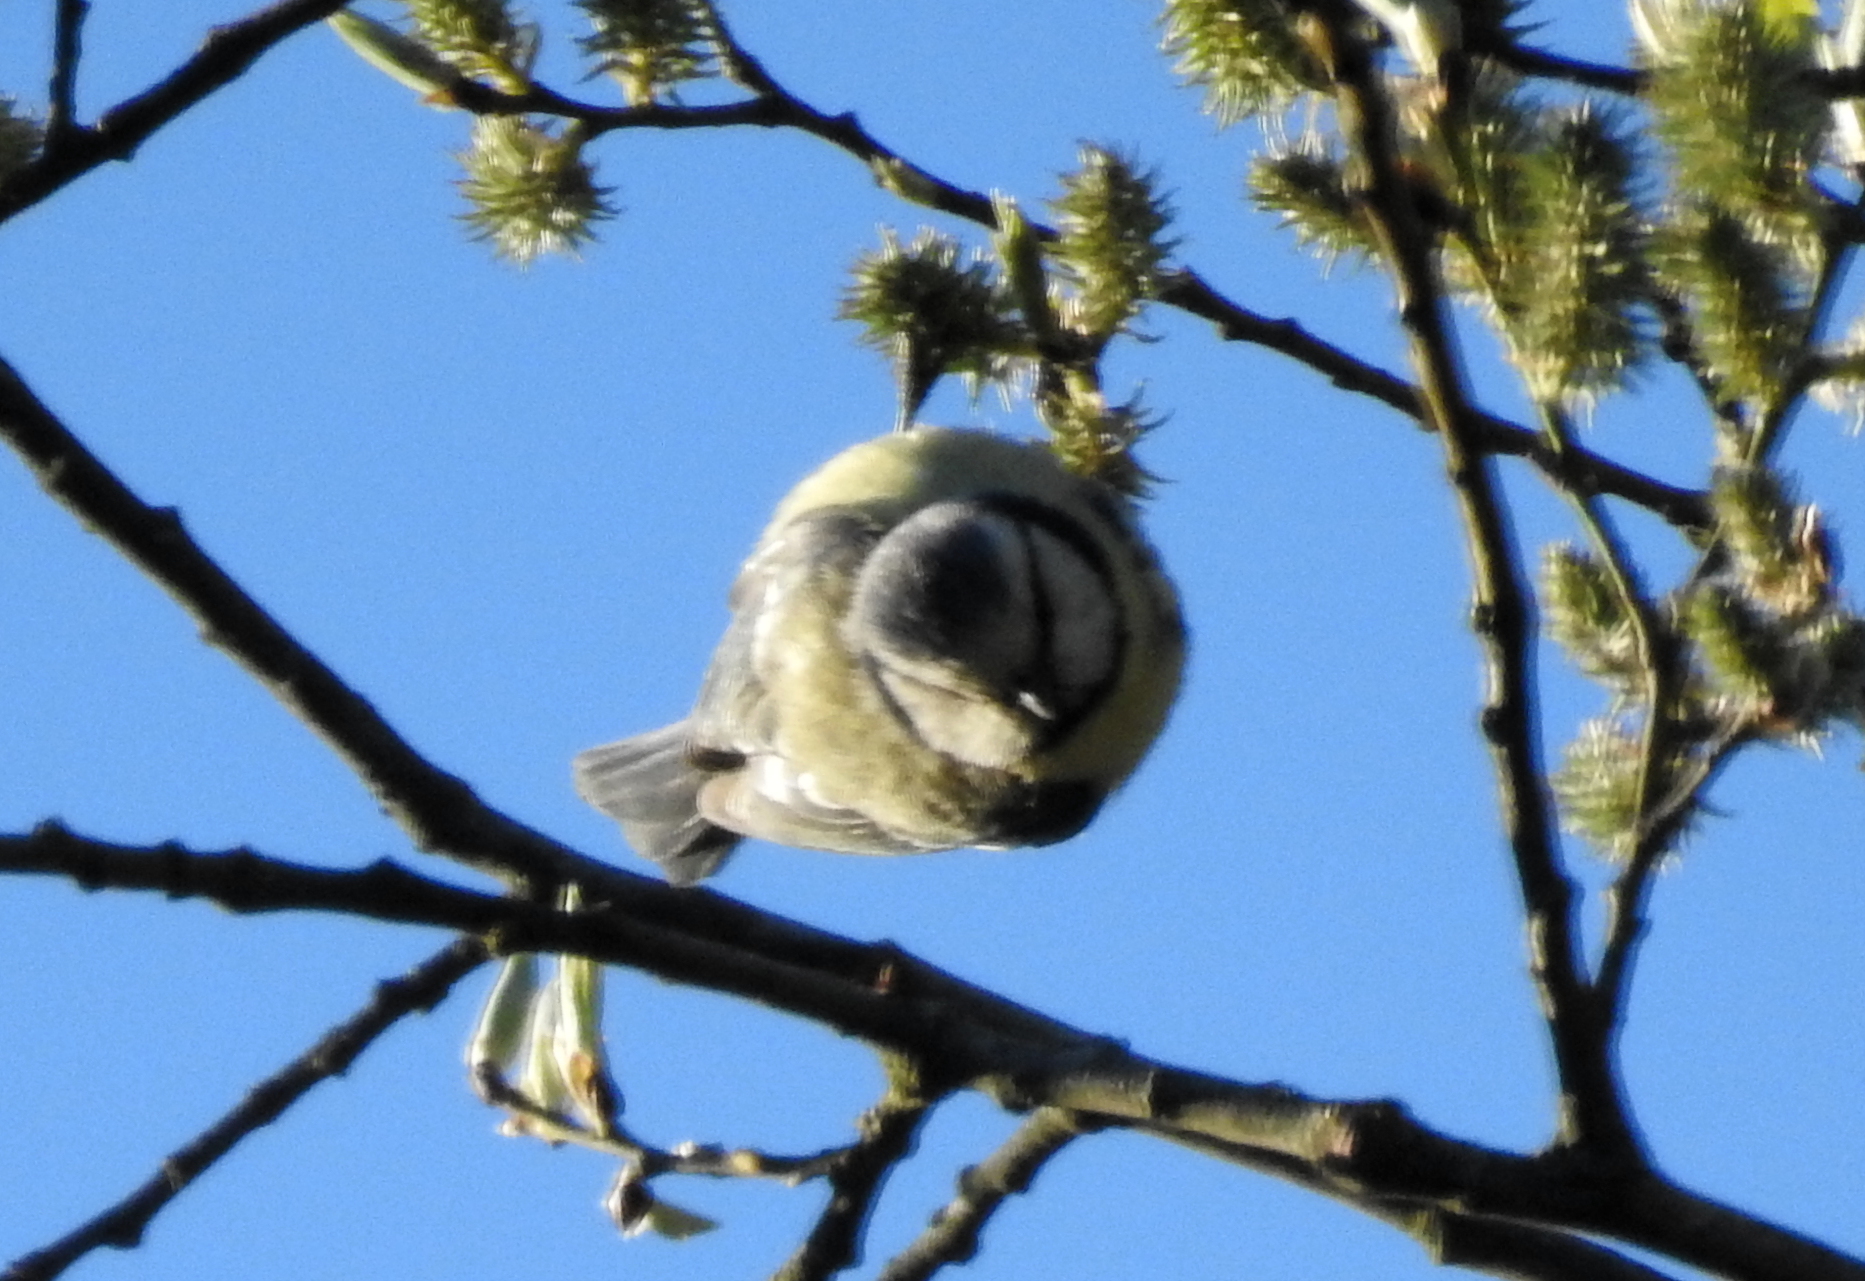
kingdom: Animalia
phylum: Chordata
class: Aves
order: Passeriformes
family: Paridae
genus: Cyanistes
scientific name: Cyanistes caeruleus
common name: Eurasian blue tit
